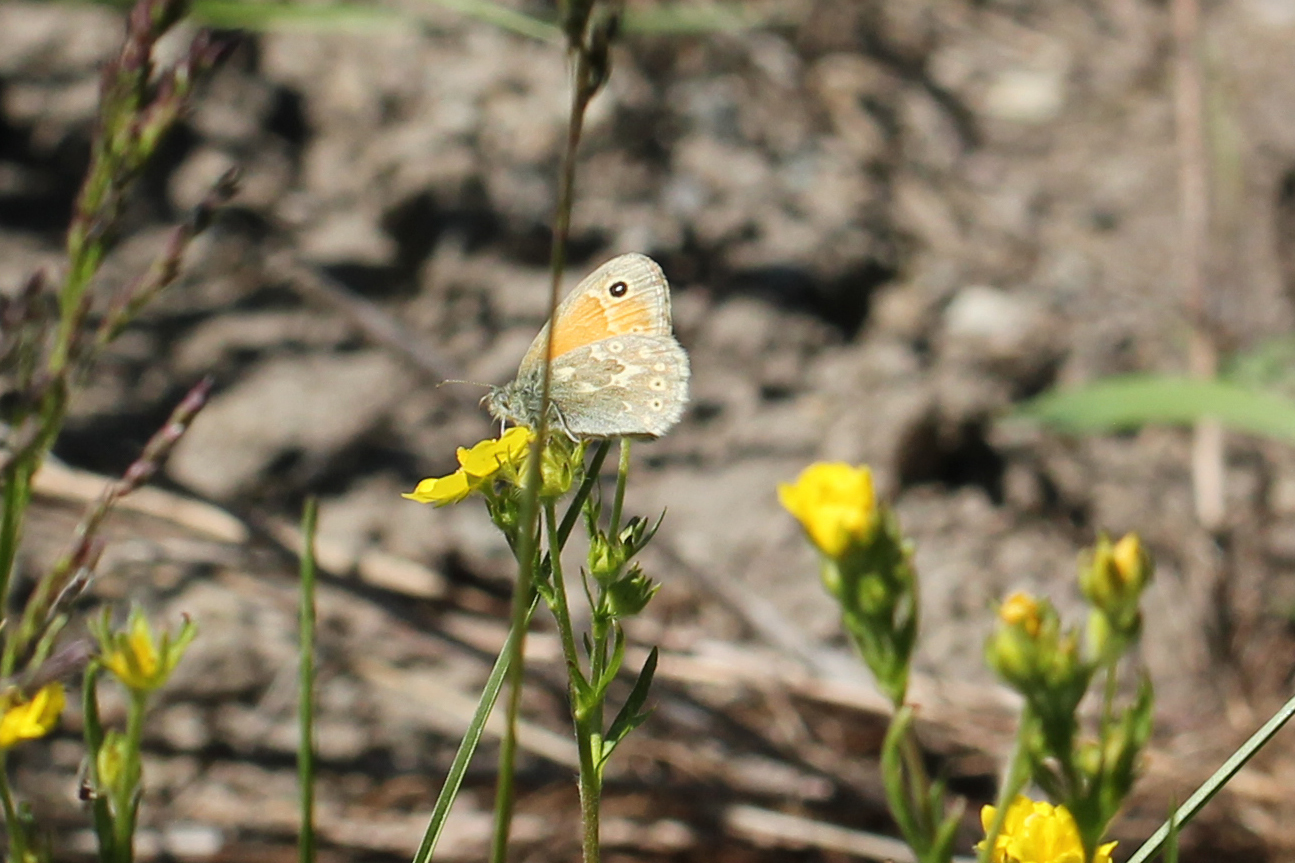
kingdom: Animalia
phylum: Arthropoda
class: Insecta
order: Lepidoptera
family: Nymphalidae
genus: Coenonympha
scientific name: Coenonympha california
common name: Common ringlet
